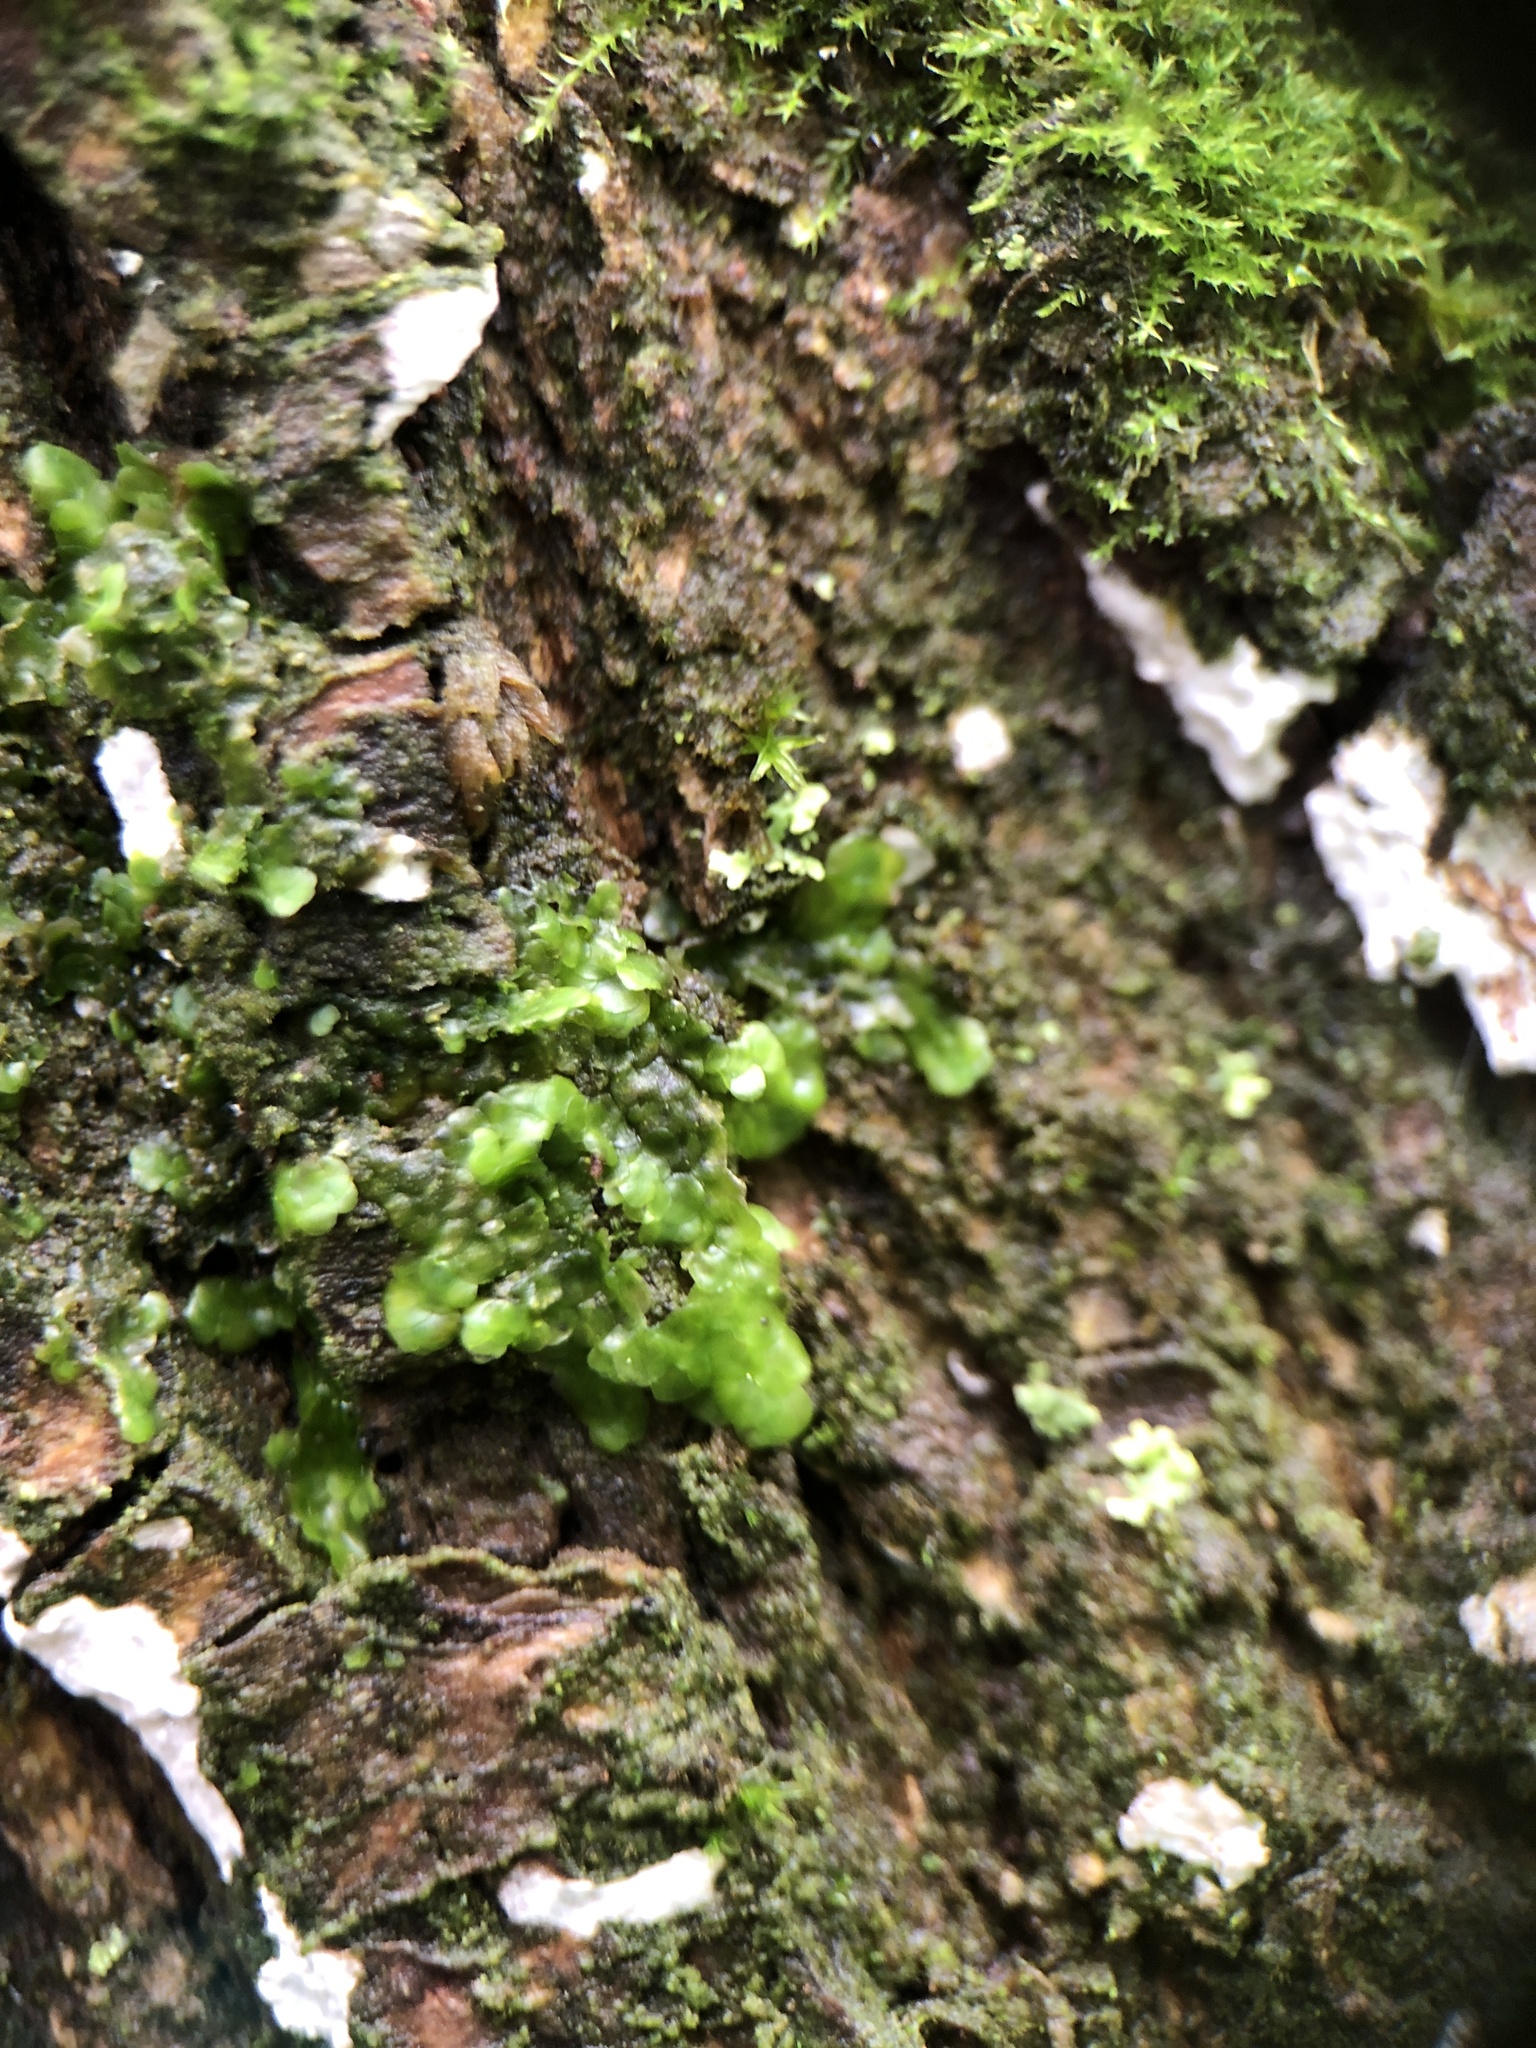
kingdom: Plantae
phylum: Marchantiophyta
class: Jungermanniopsida
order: Porellales
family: Radulaceae
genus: Radula
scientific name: Radula complanata
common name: Flat-leaved scalewort
